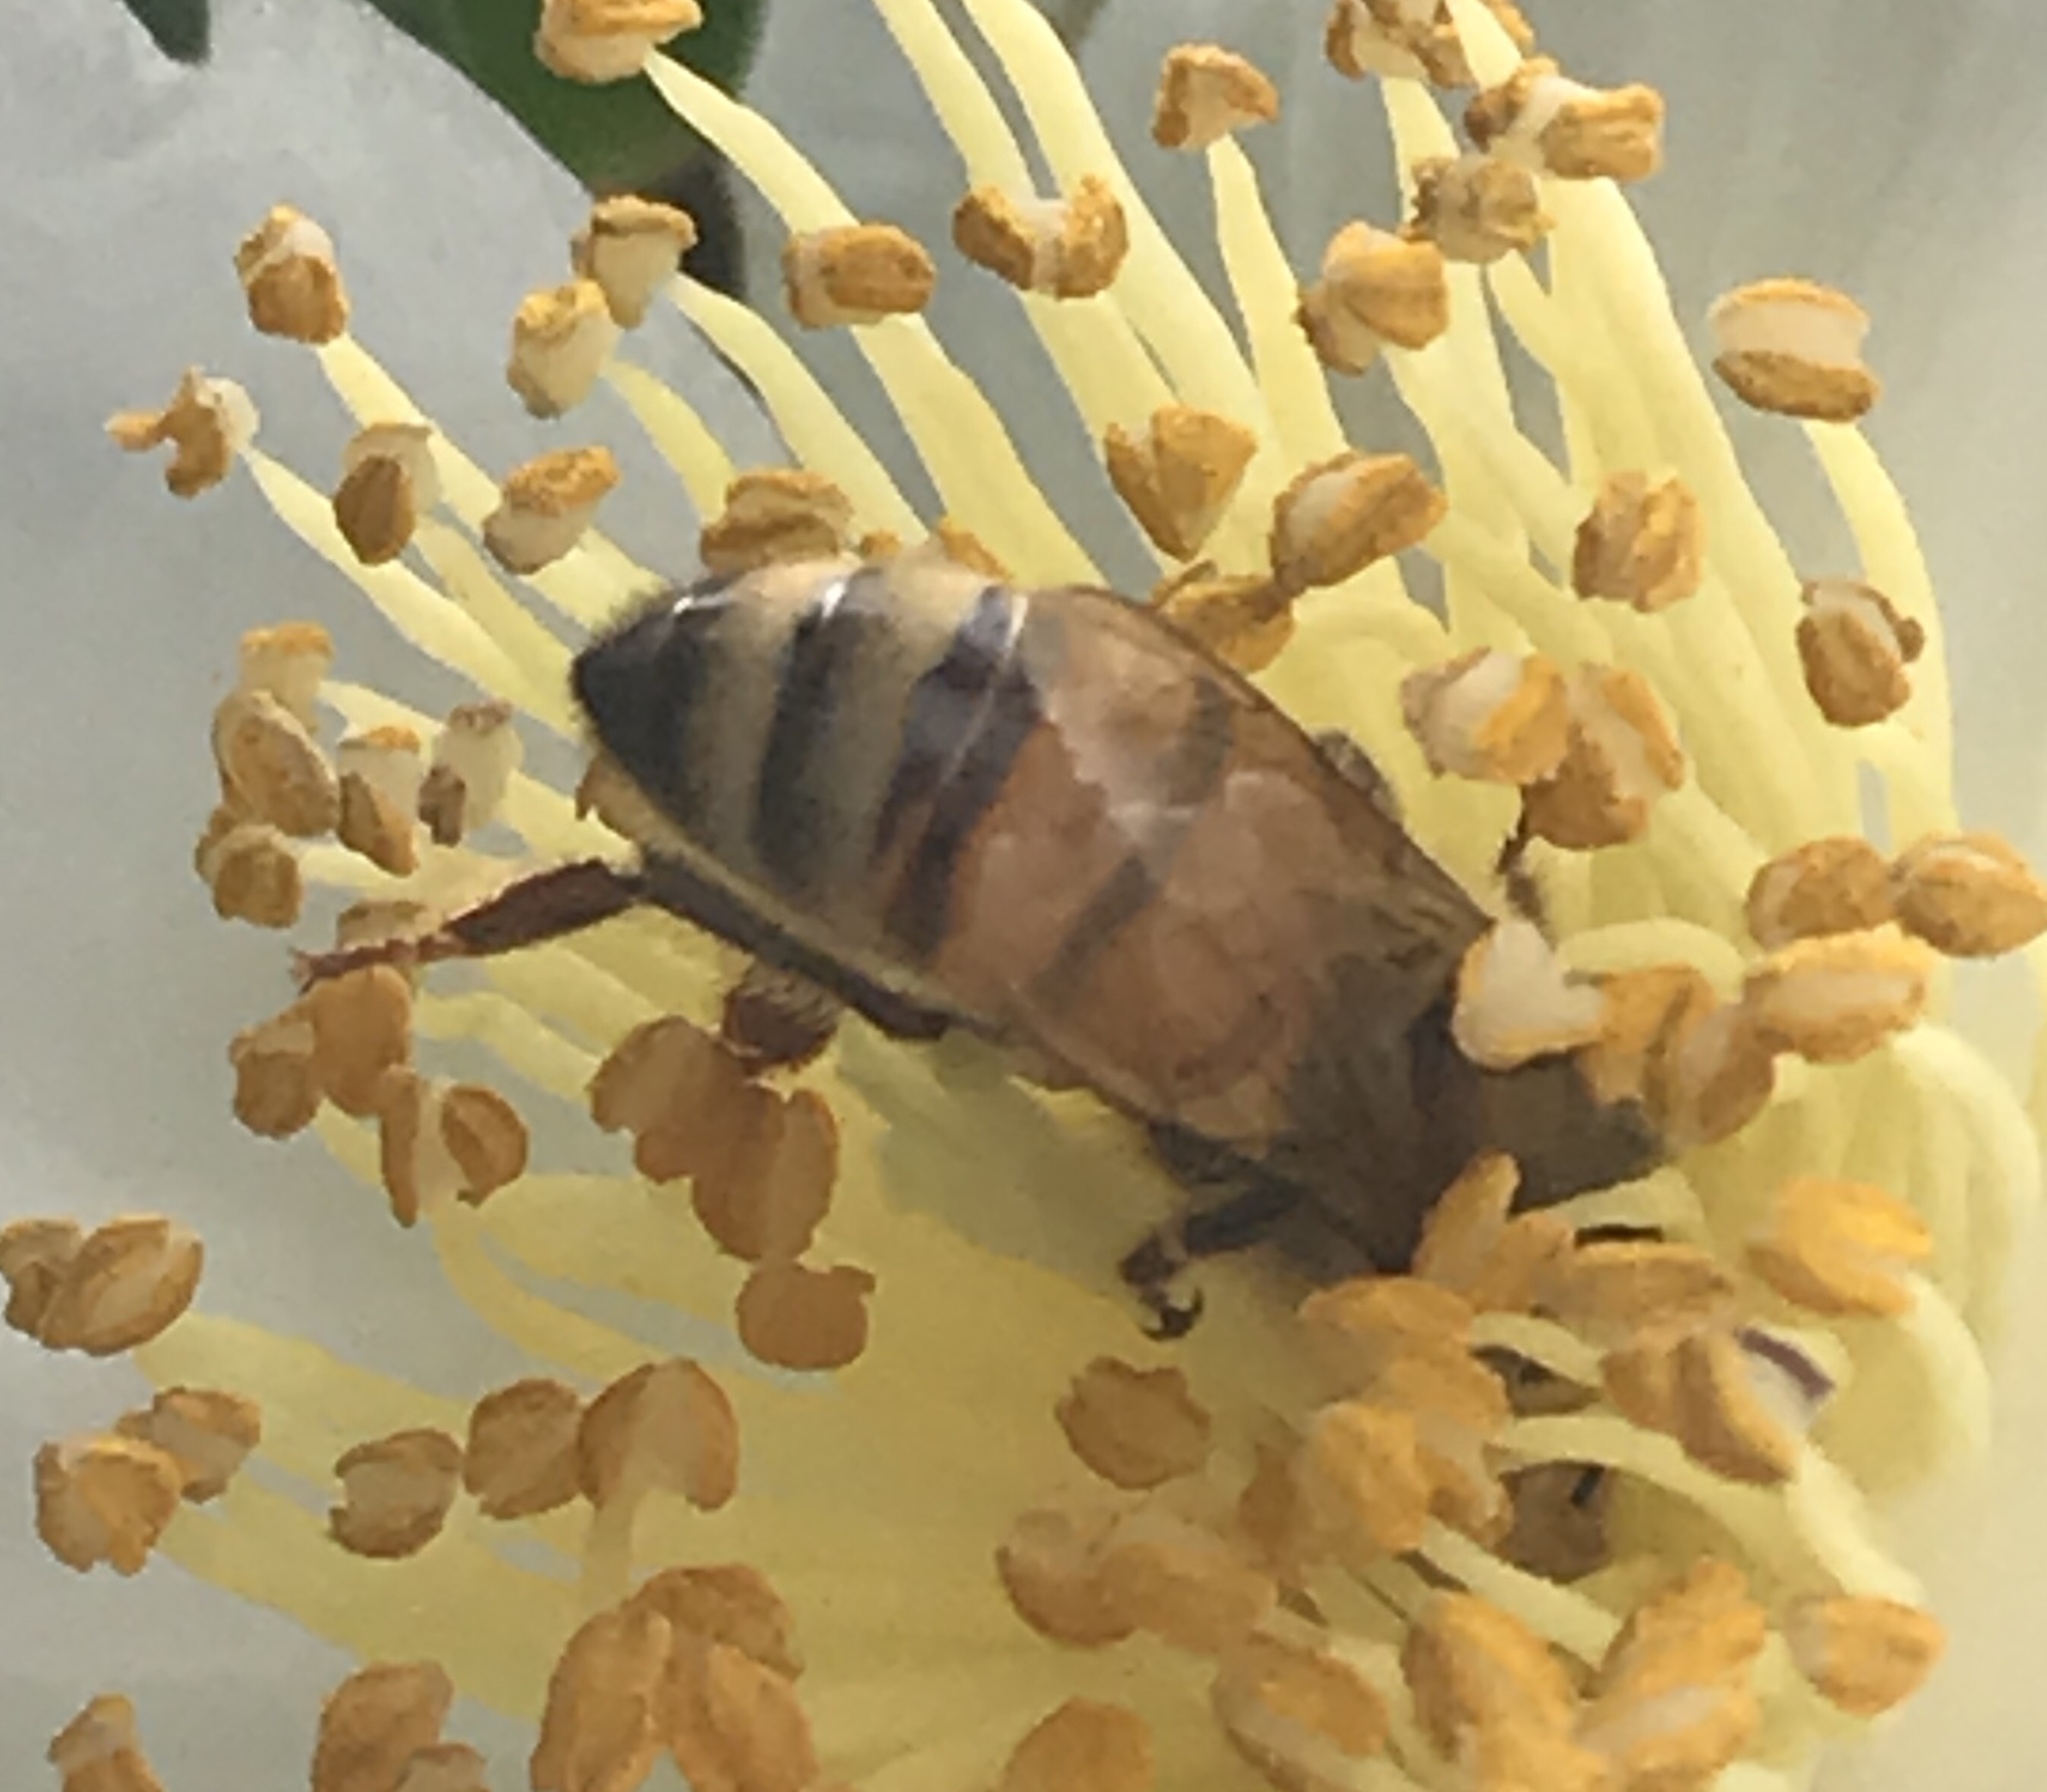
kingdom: Animalia
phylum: Arthropoda
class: Insecta
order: Hymenoptera
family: Apidae
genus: Apis
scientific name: Apis mellifera
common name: Honey bee
